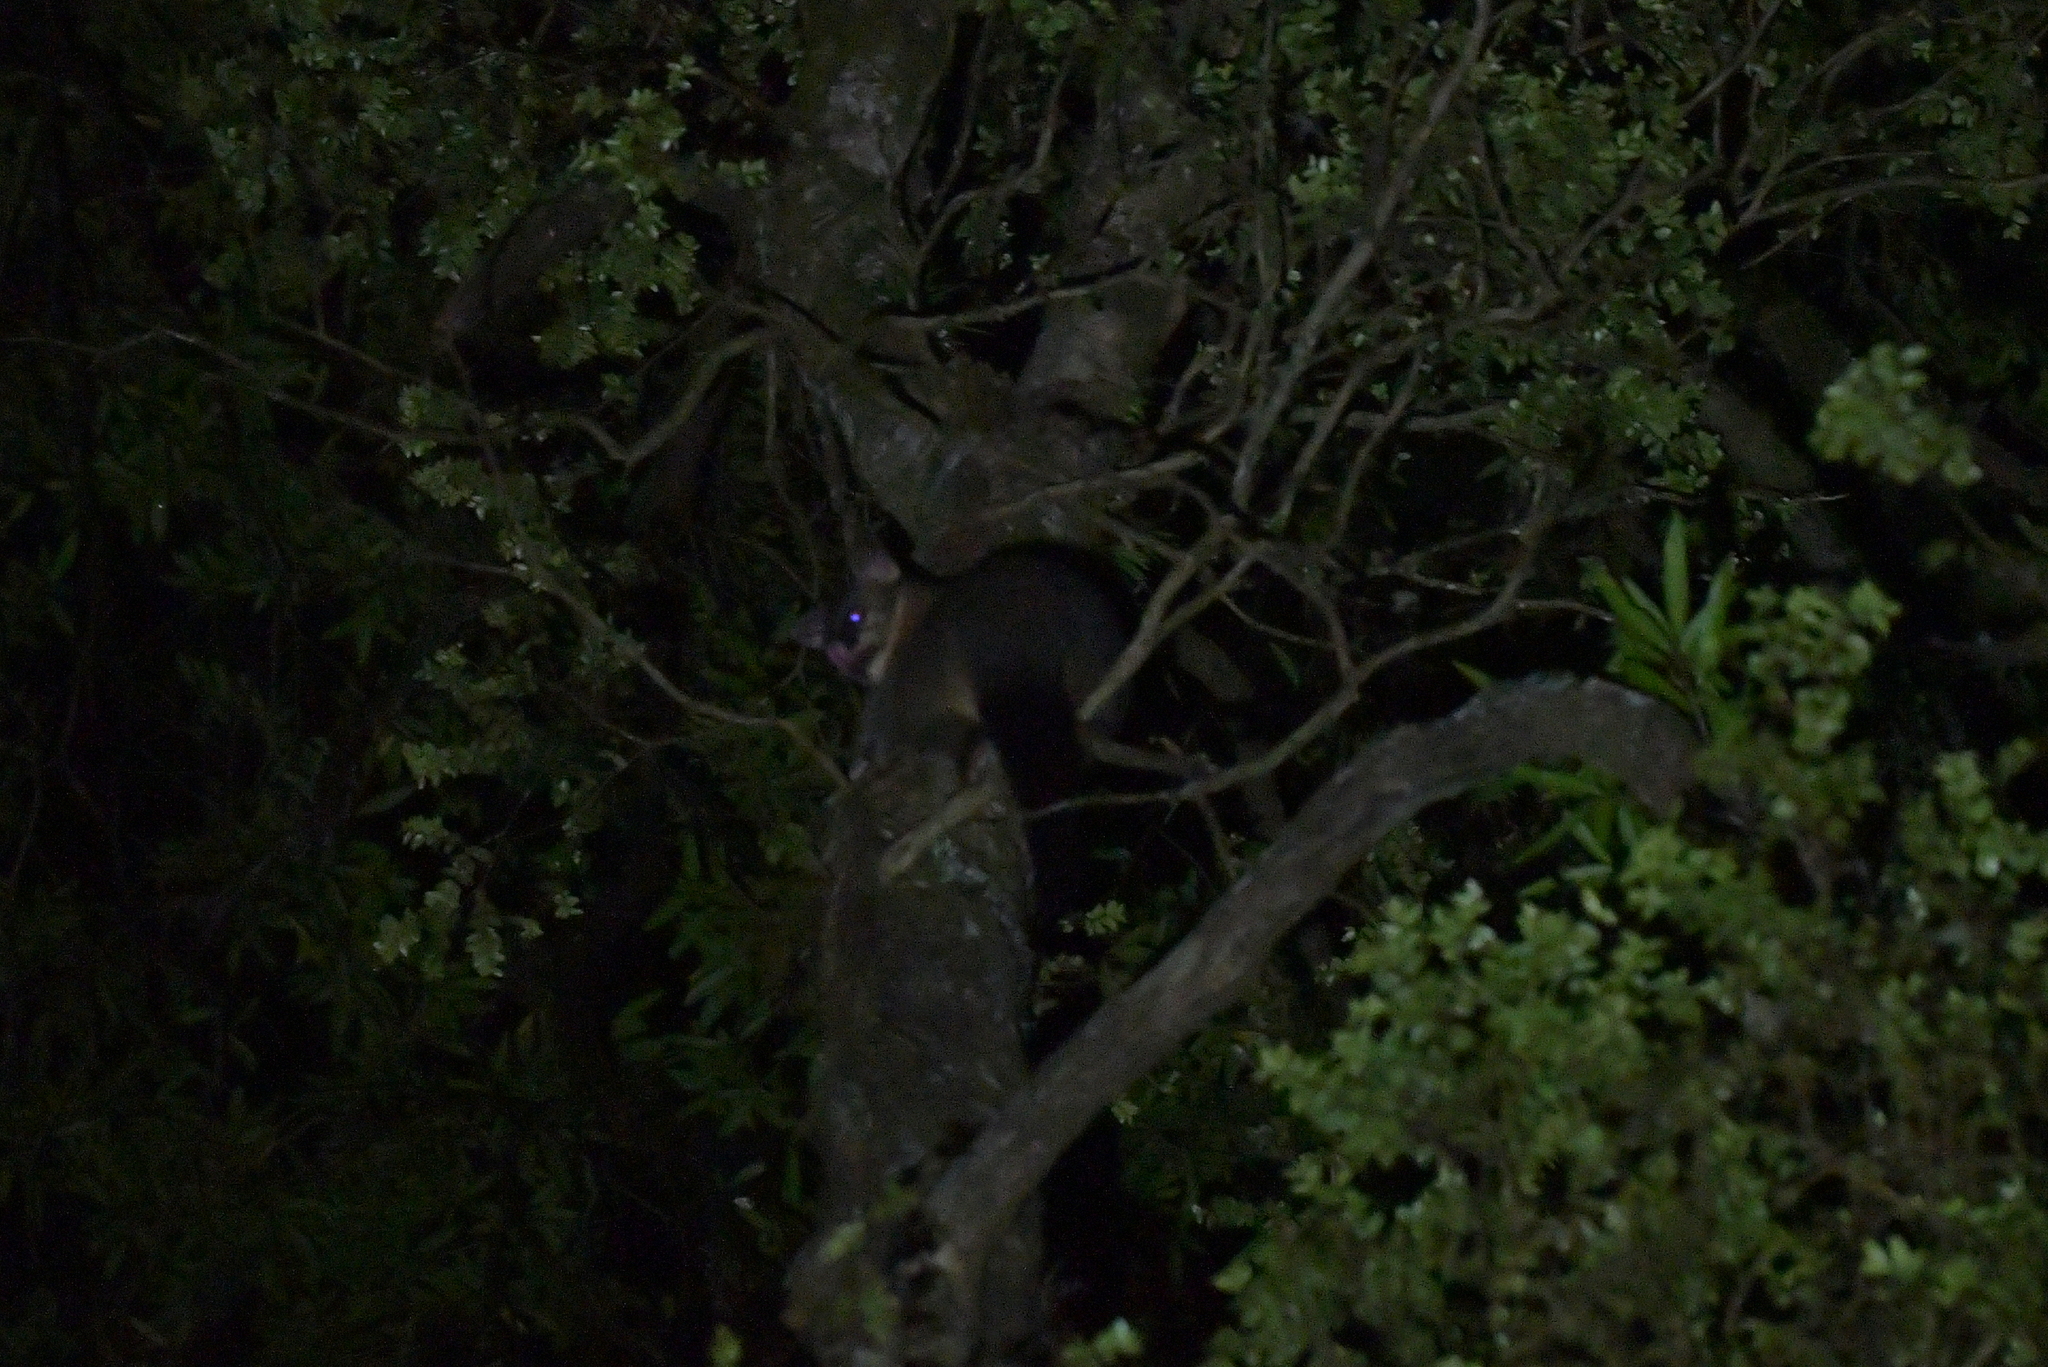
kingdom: Animalia
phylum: Chordata
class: Mammalia
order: Diprotodontia
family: Phalangeridae
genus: Trichosurus
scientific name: Trichosurus vulpecula
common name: Common brushtail
